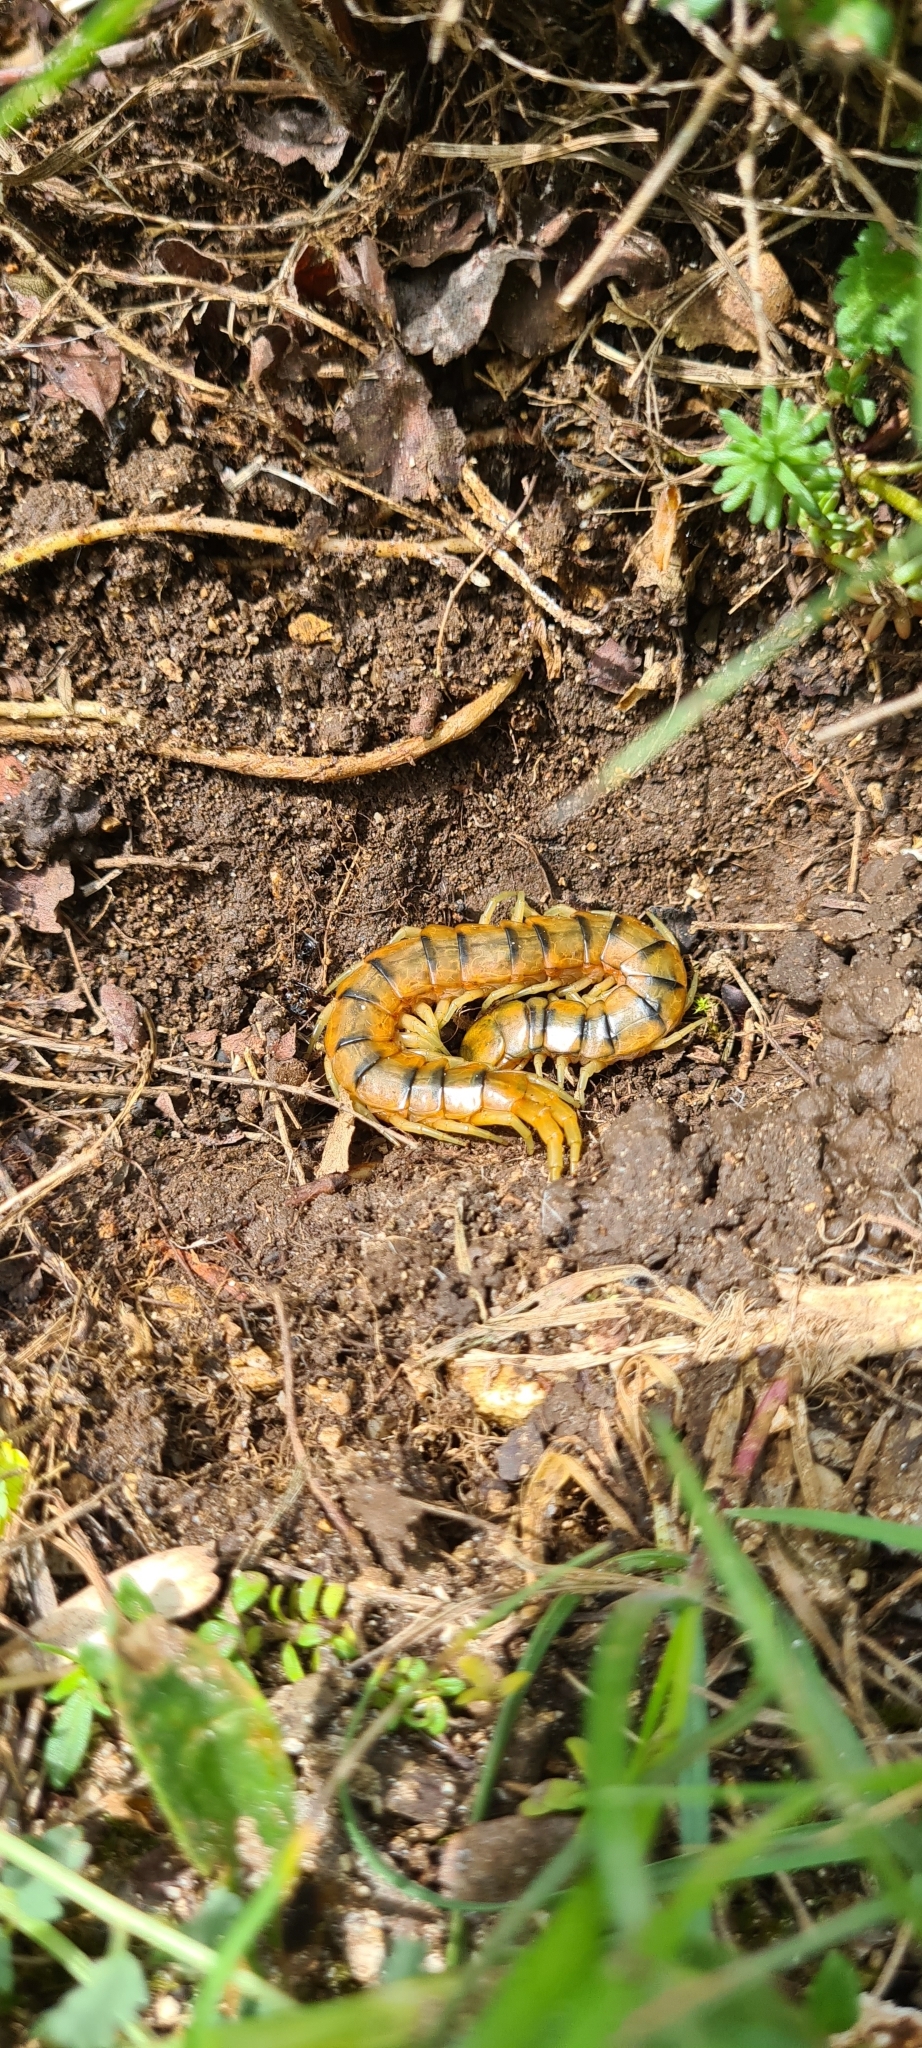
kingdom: Animalia
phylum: Arthropoda
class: Chilopoda
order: Scolopendromorpha
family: Scolopendridae
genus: Scolopendra
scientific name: Scolopendra cingulata
